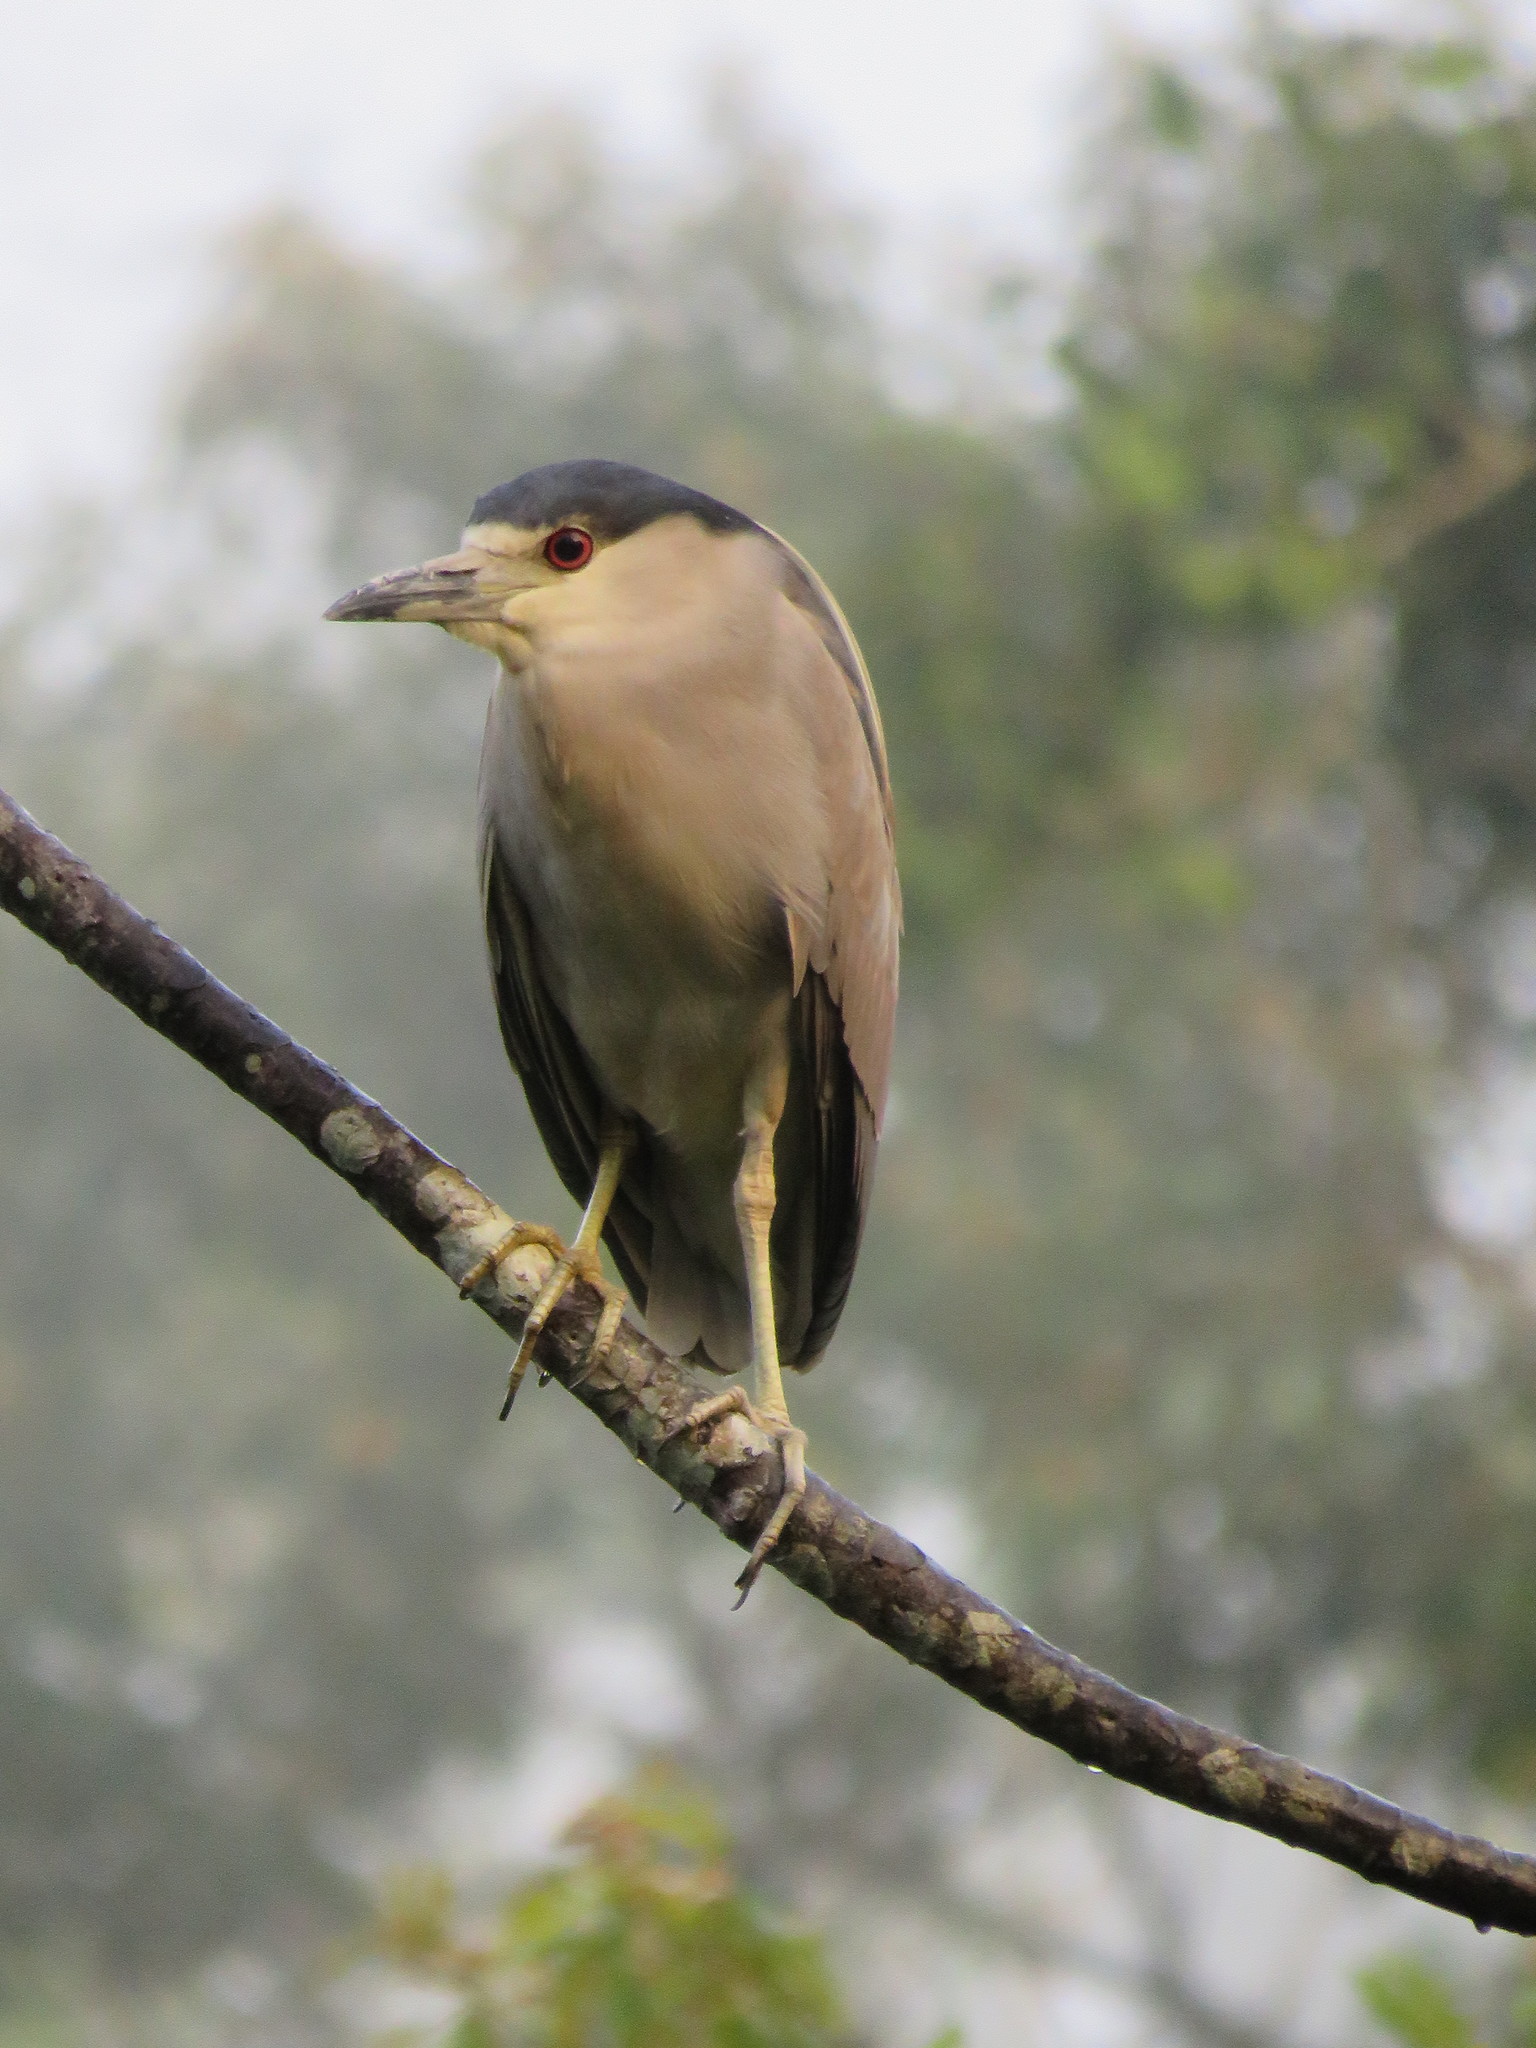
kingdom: Animalia
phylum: Chordata
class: Aves
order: Pelecaniformes
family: Ardeidae
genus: Nycticorax
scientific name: Nycticorax nycticorax
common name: Black-crowned night heron
